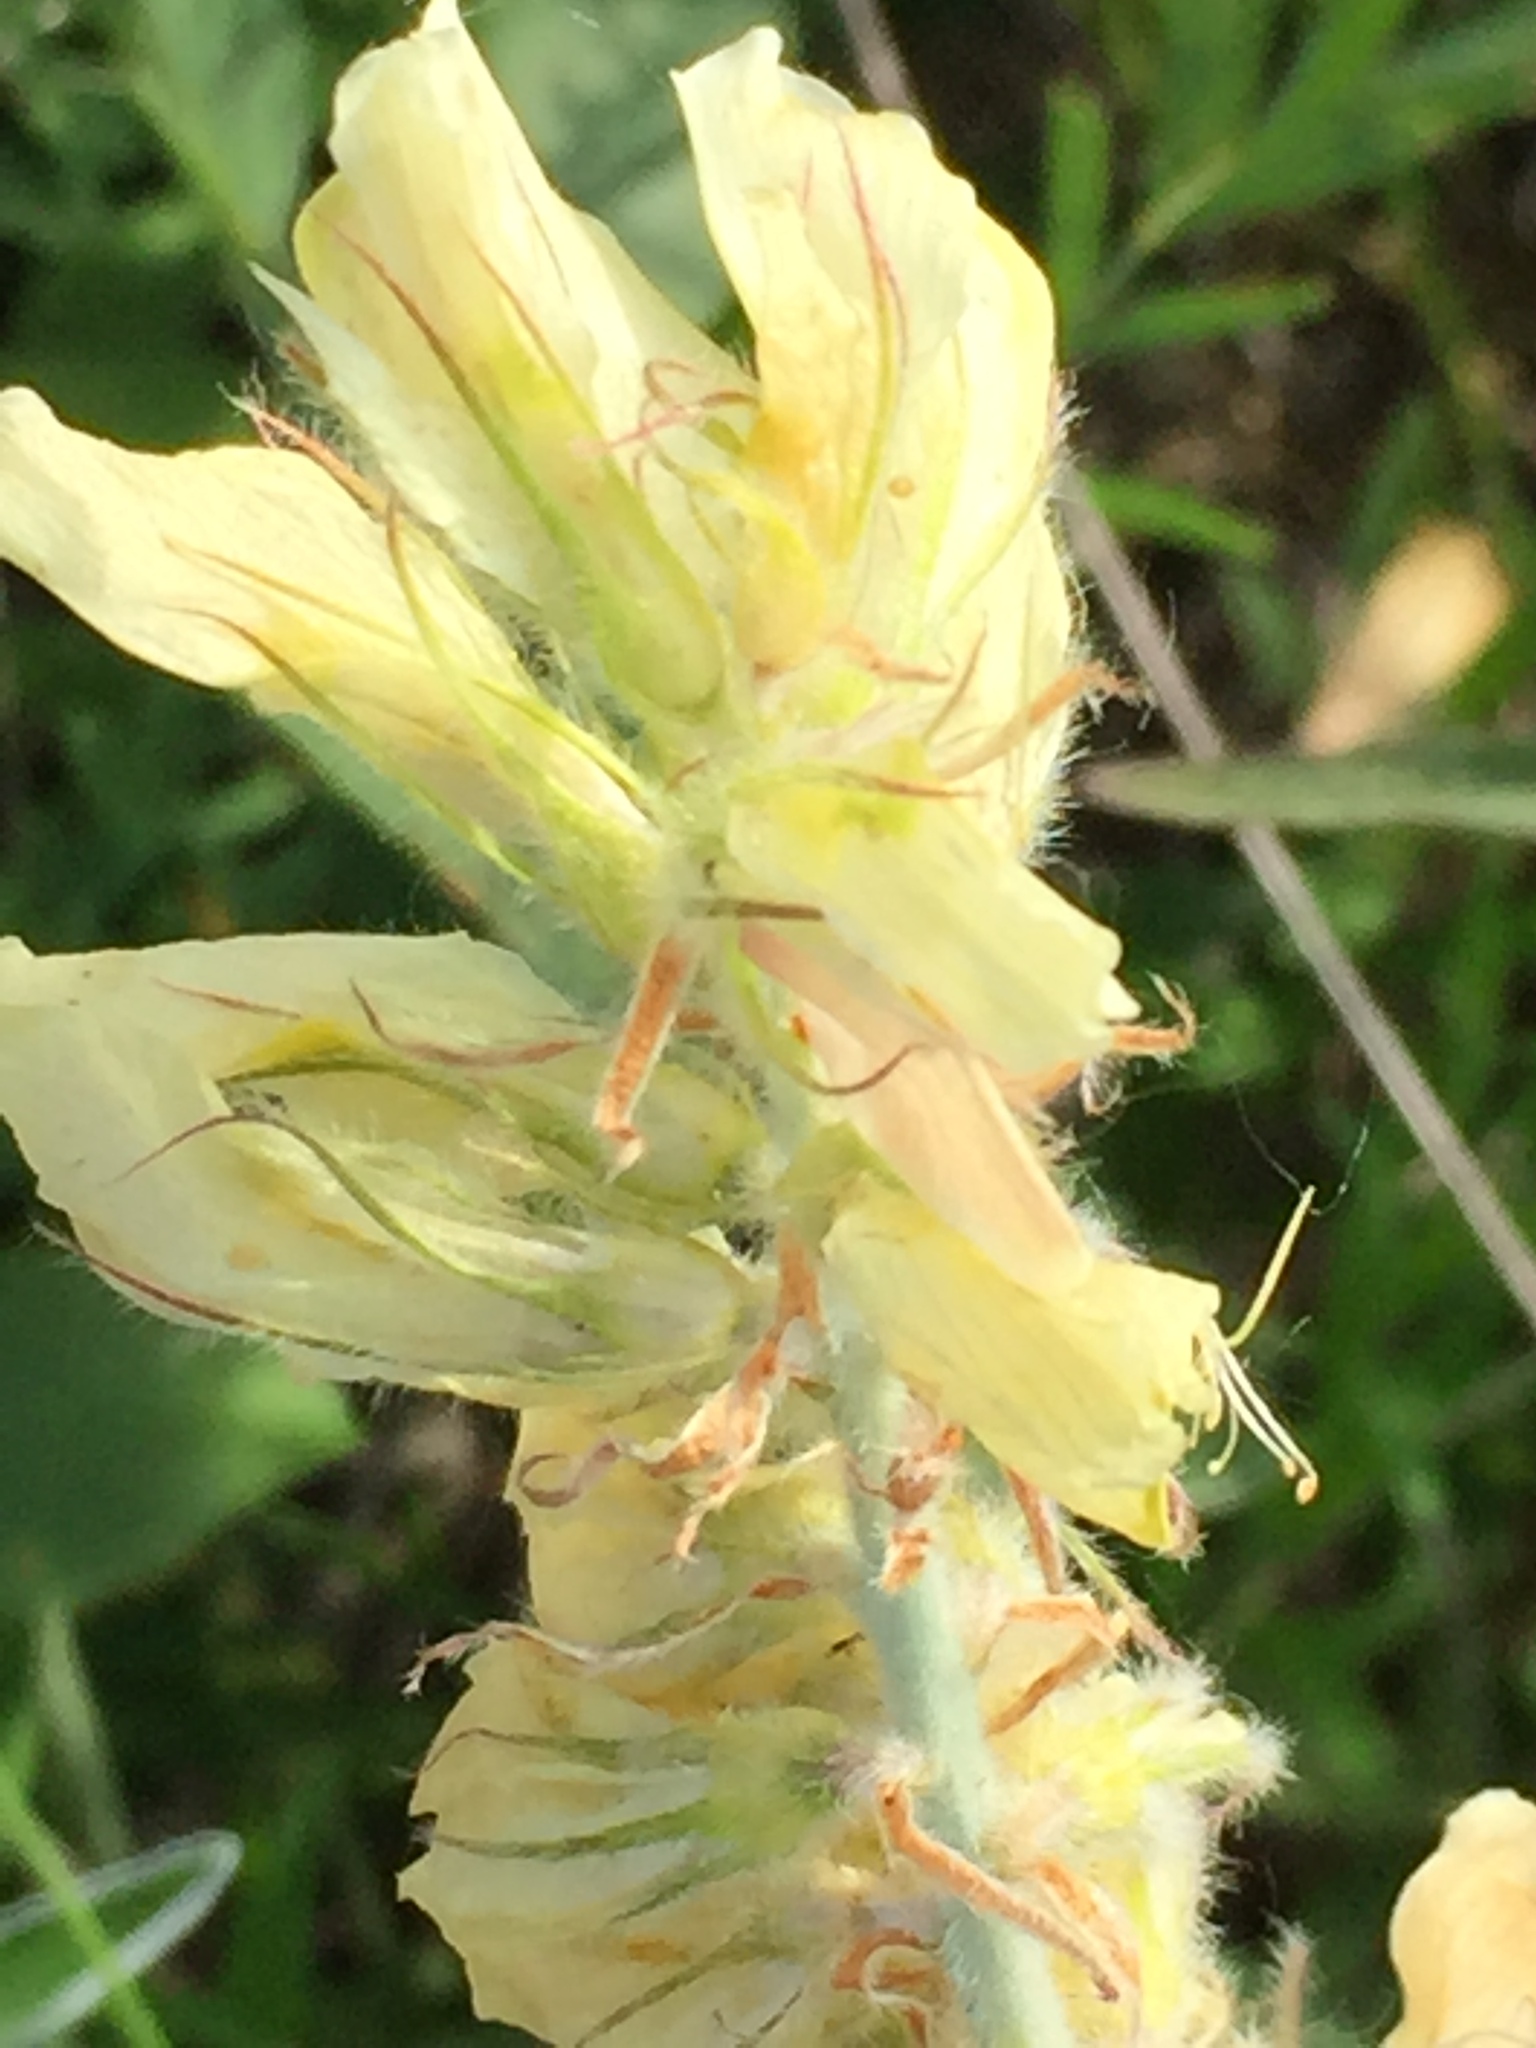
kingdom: Plantae
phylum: Tracheophyta
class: Magnoliopsida
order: Fabales
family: Fabaceae
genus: Hedysarum
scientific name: Hedysarum grandiflorum
